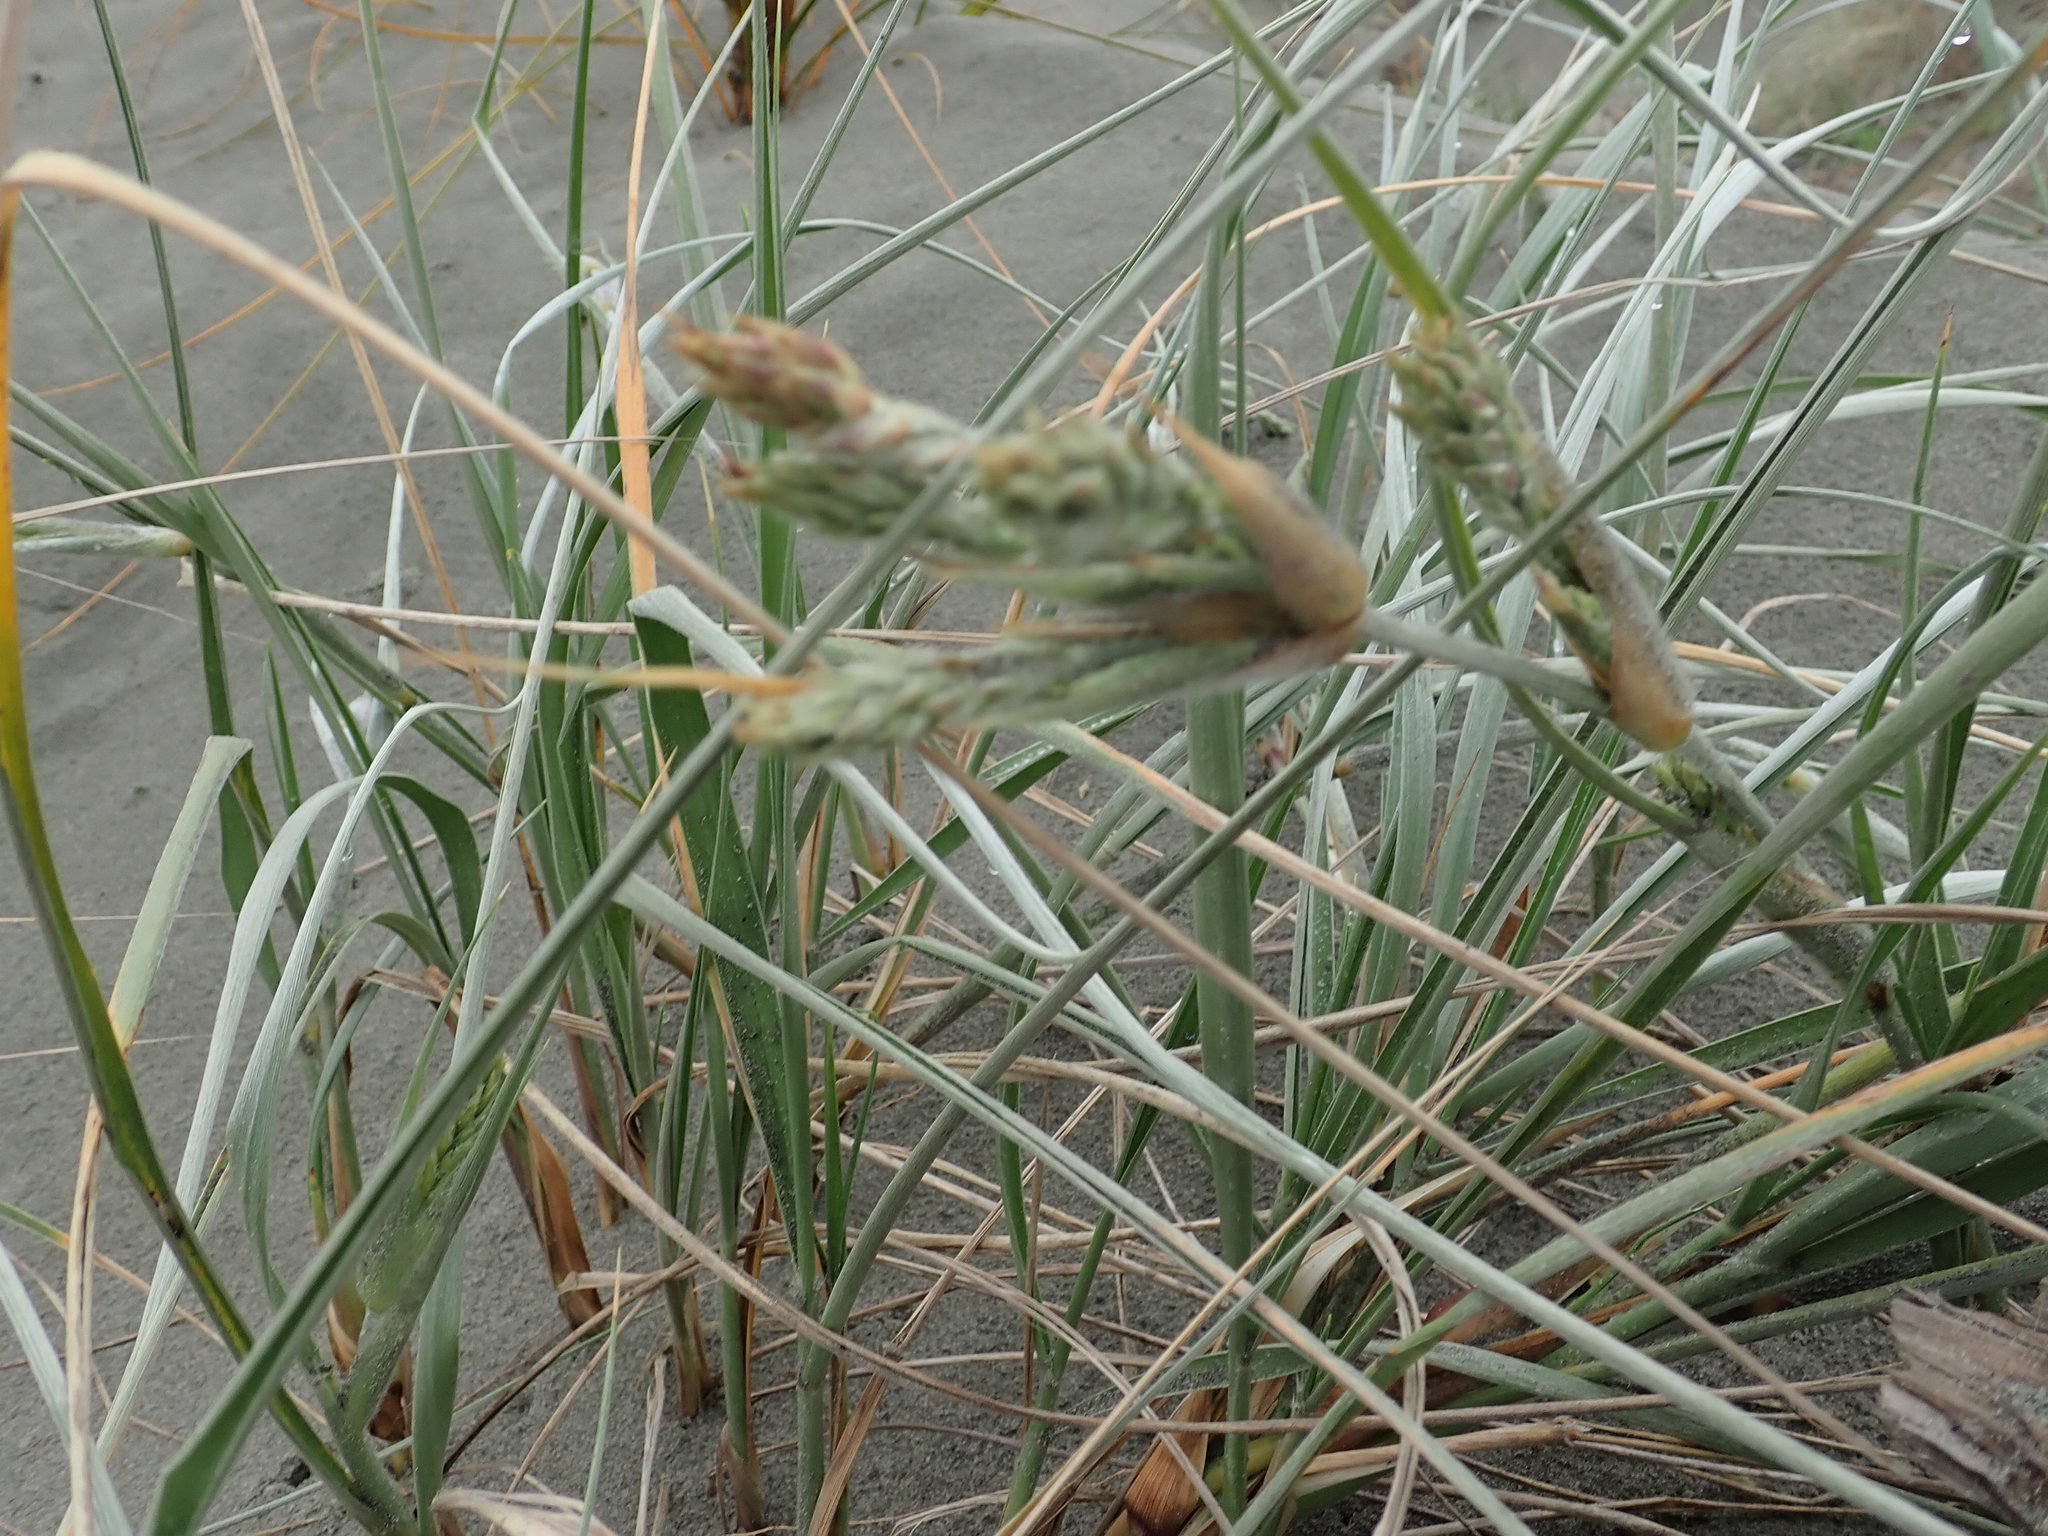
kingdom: Plantae
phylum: Tracheophyta
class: Liliopsida
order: Poales
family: Poaceae
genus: Spinifex
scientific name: Spinifex sericeus
